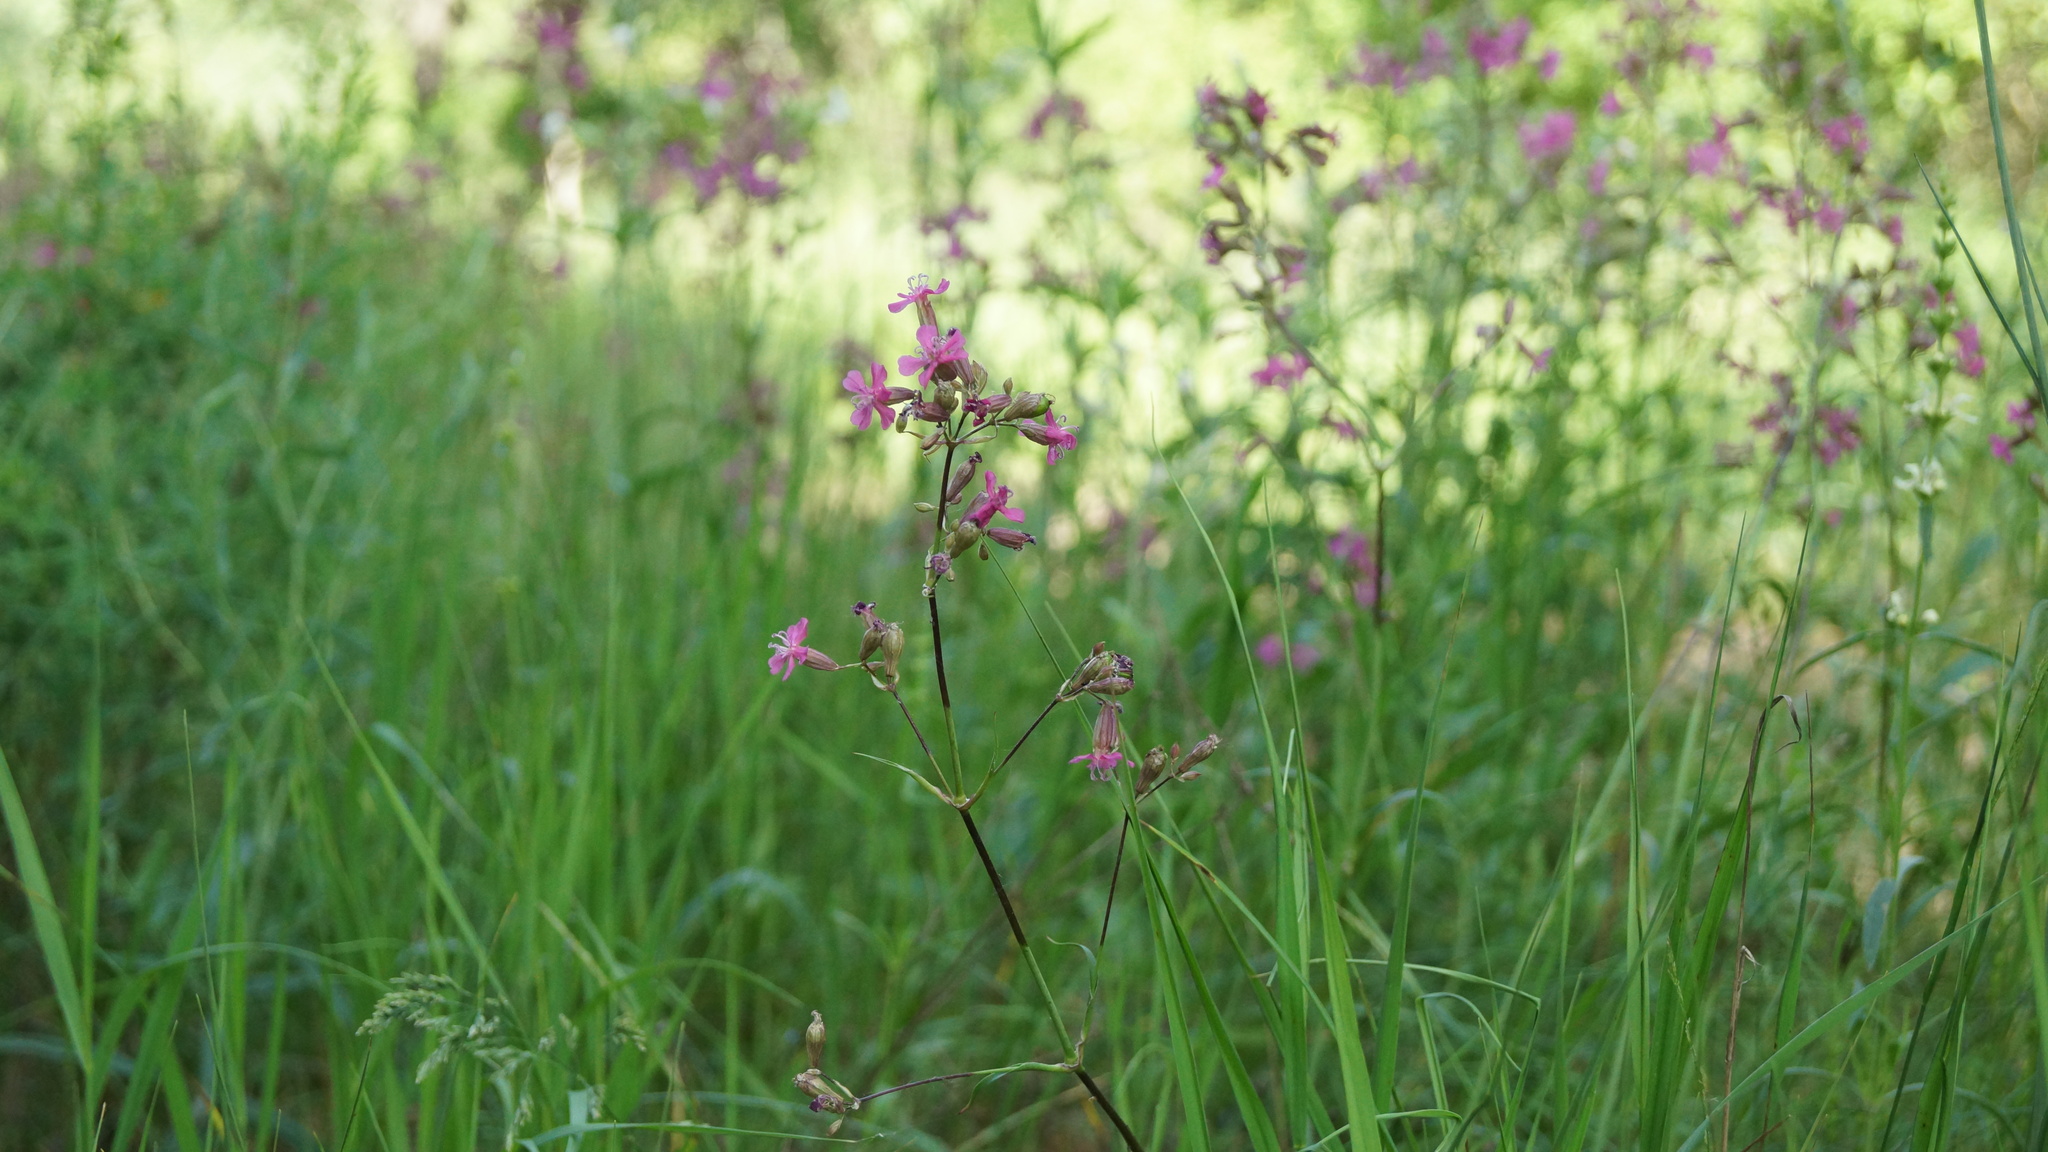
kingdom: Plantae
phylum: Tracheophyta
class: Magnoliopsida
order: Caryophyllales
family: Caryophyllaceae
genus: Viscaria
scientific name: Viscaria vulgaris
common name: Clammy campion
